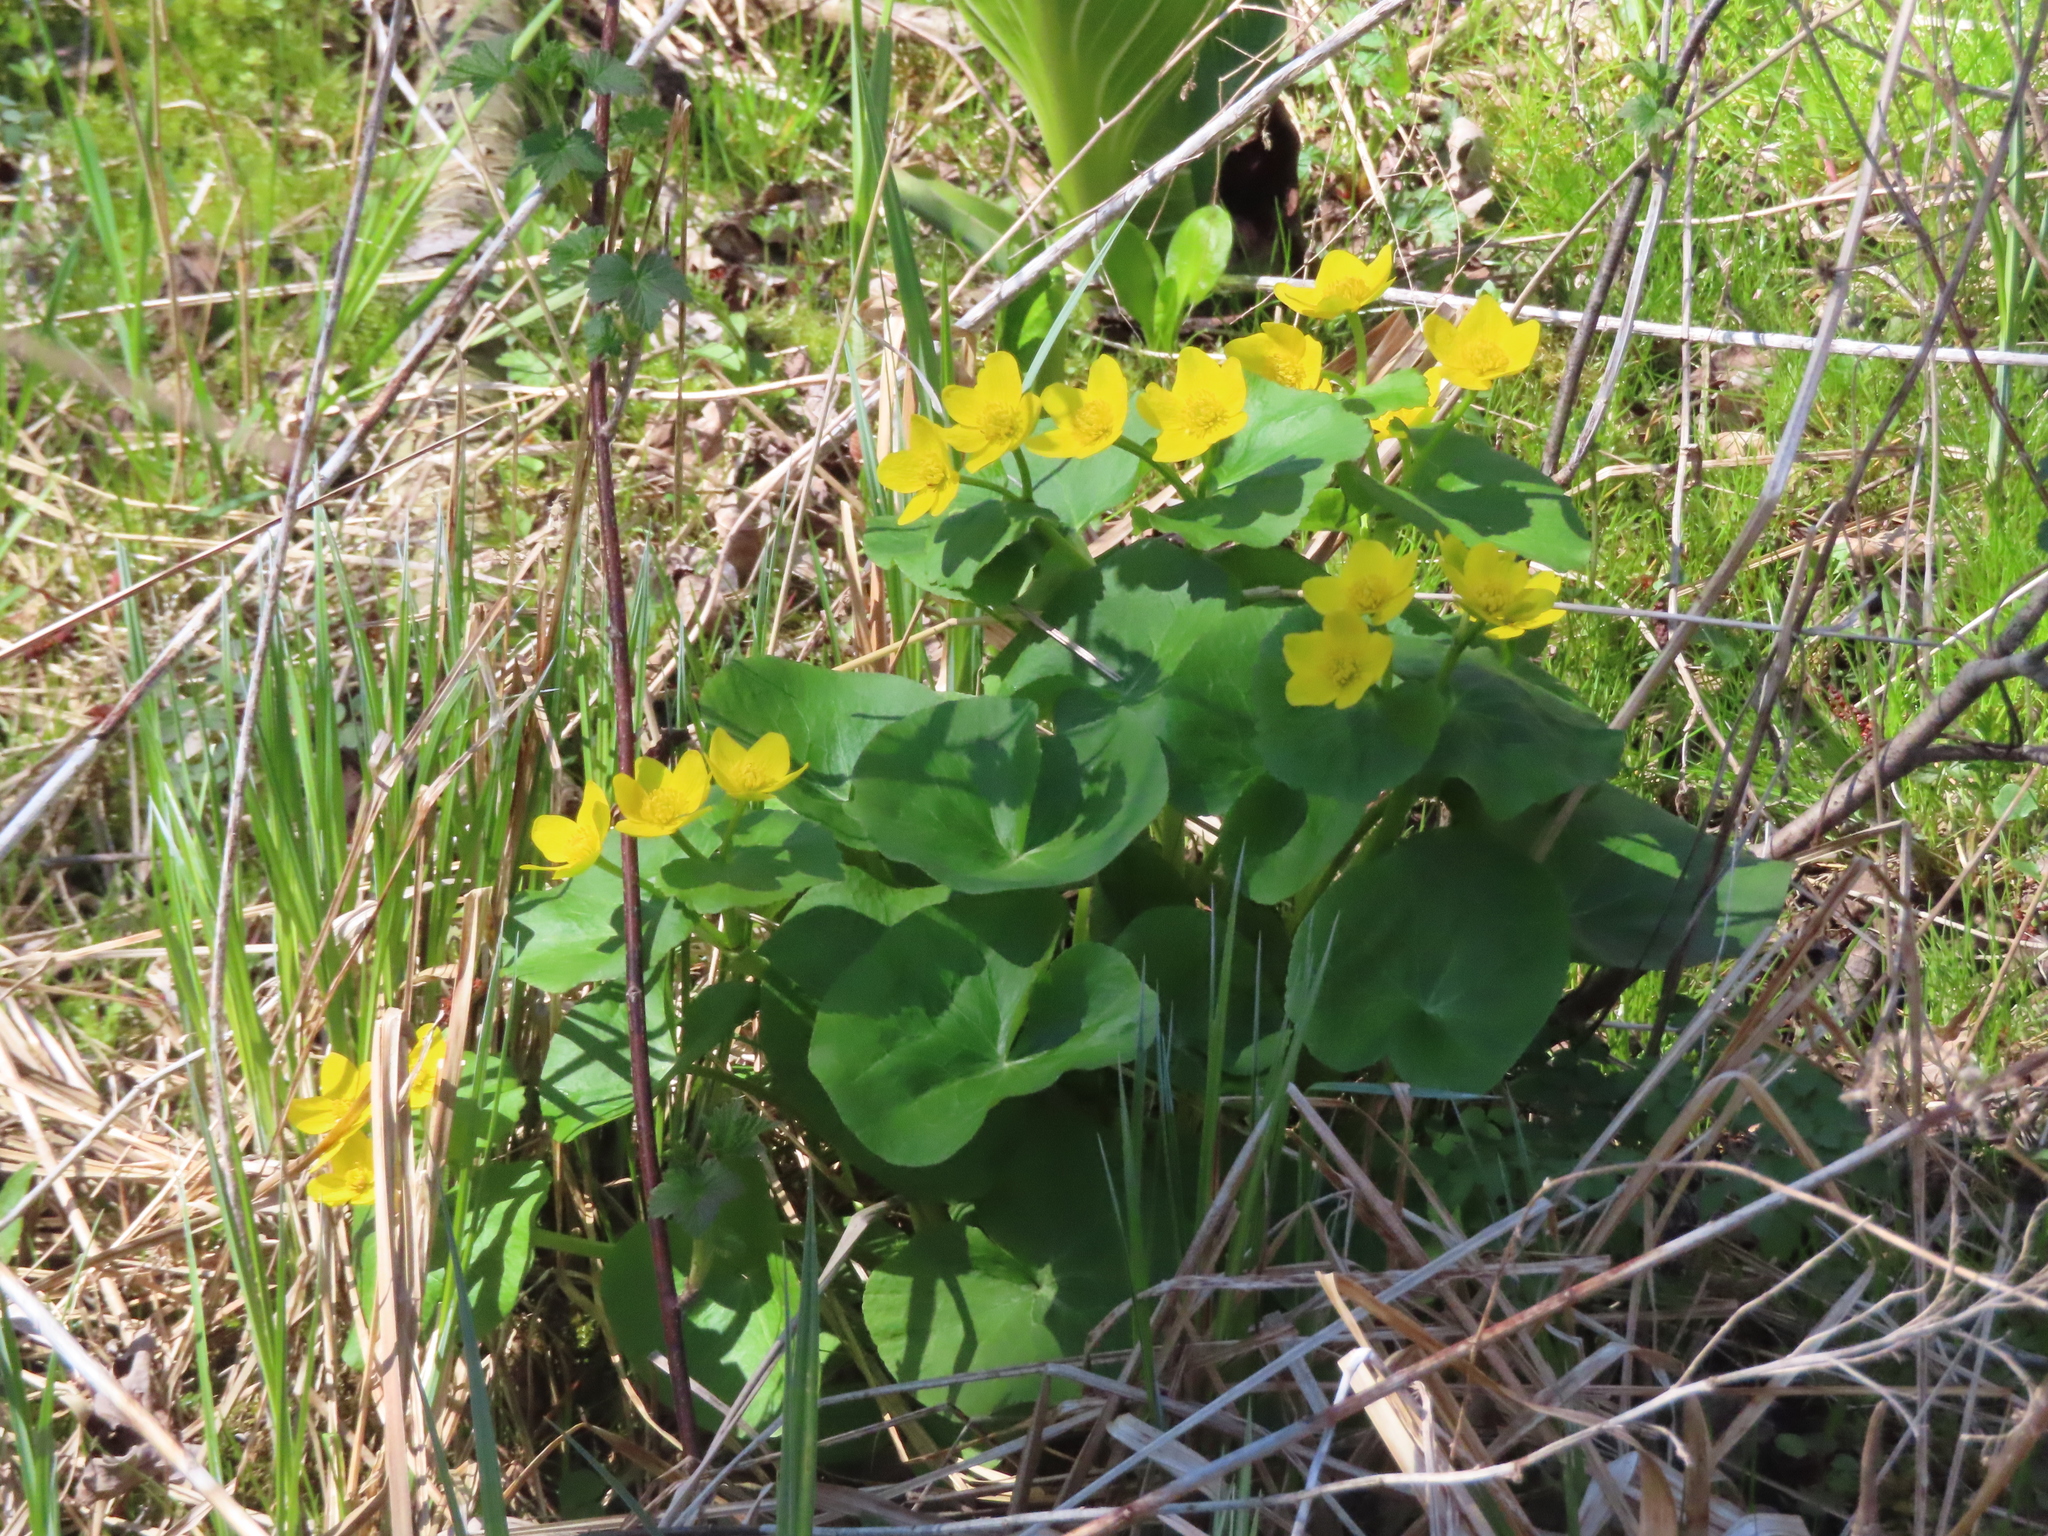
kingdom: Plantae
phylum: Tracheophyta
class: Magnoliopsida
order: Ranunculales
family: Ranunculaceae
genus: Caltha
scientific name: Caltha palustris
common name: Marsh marigold
